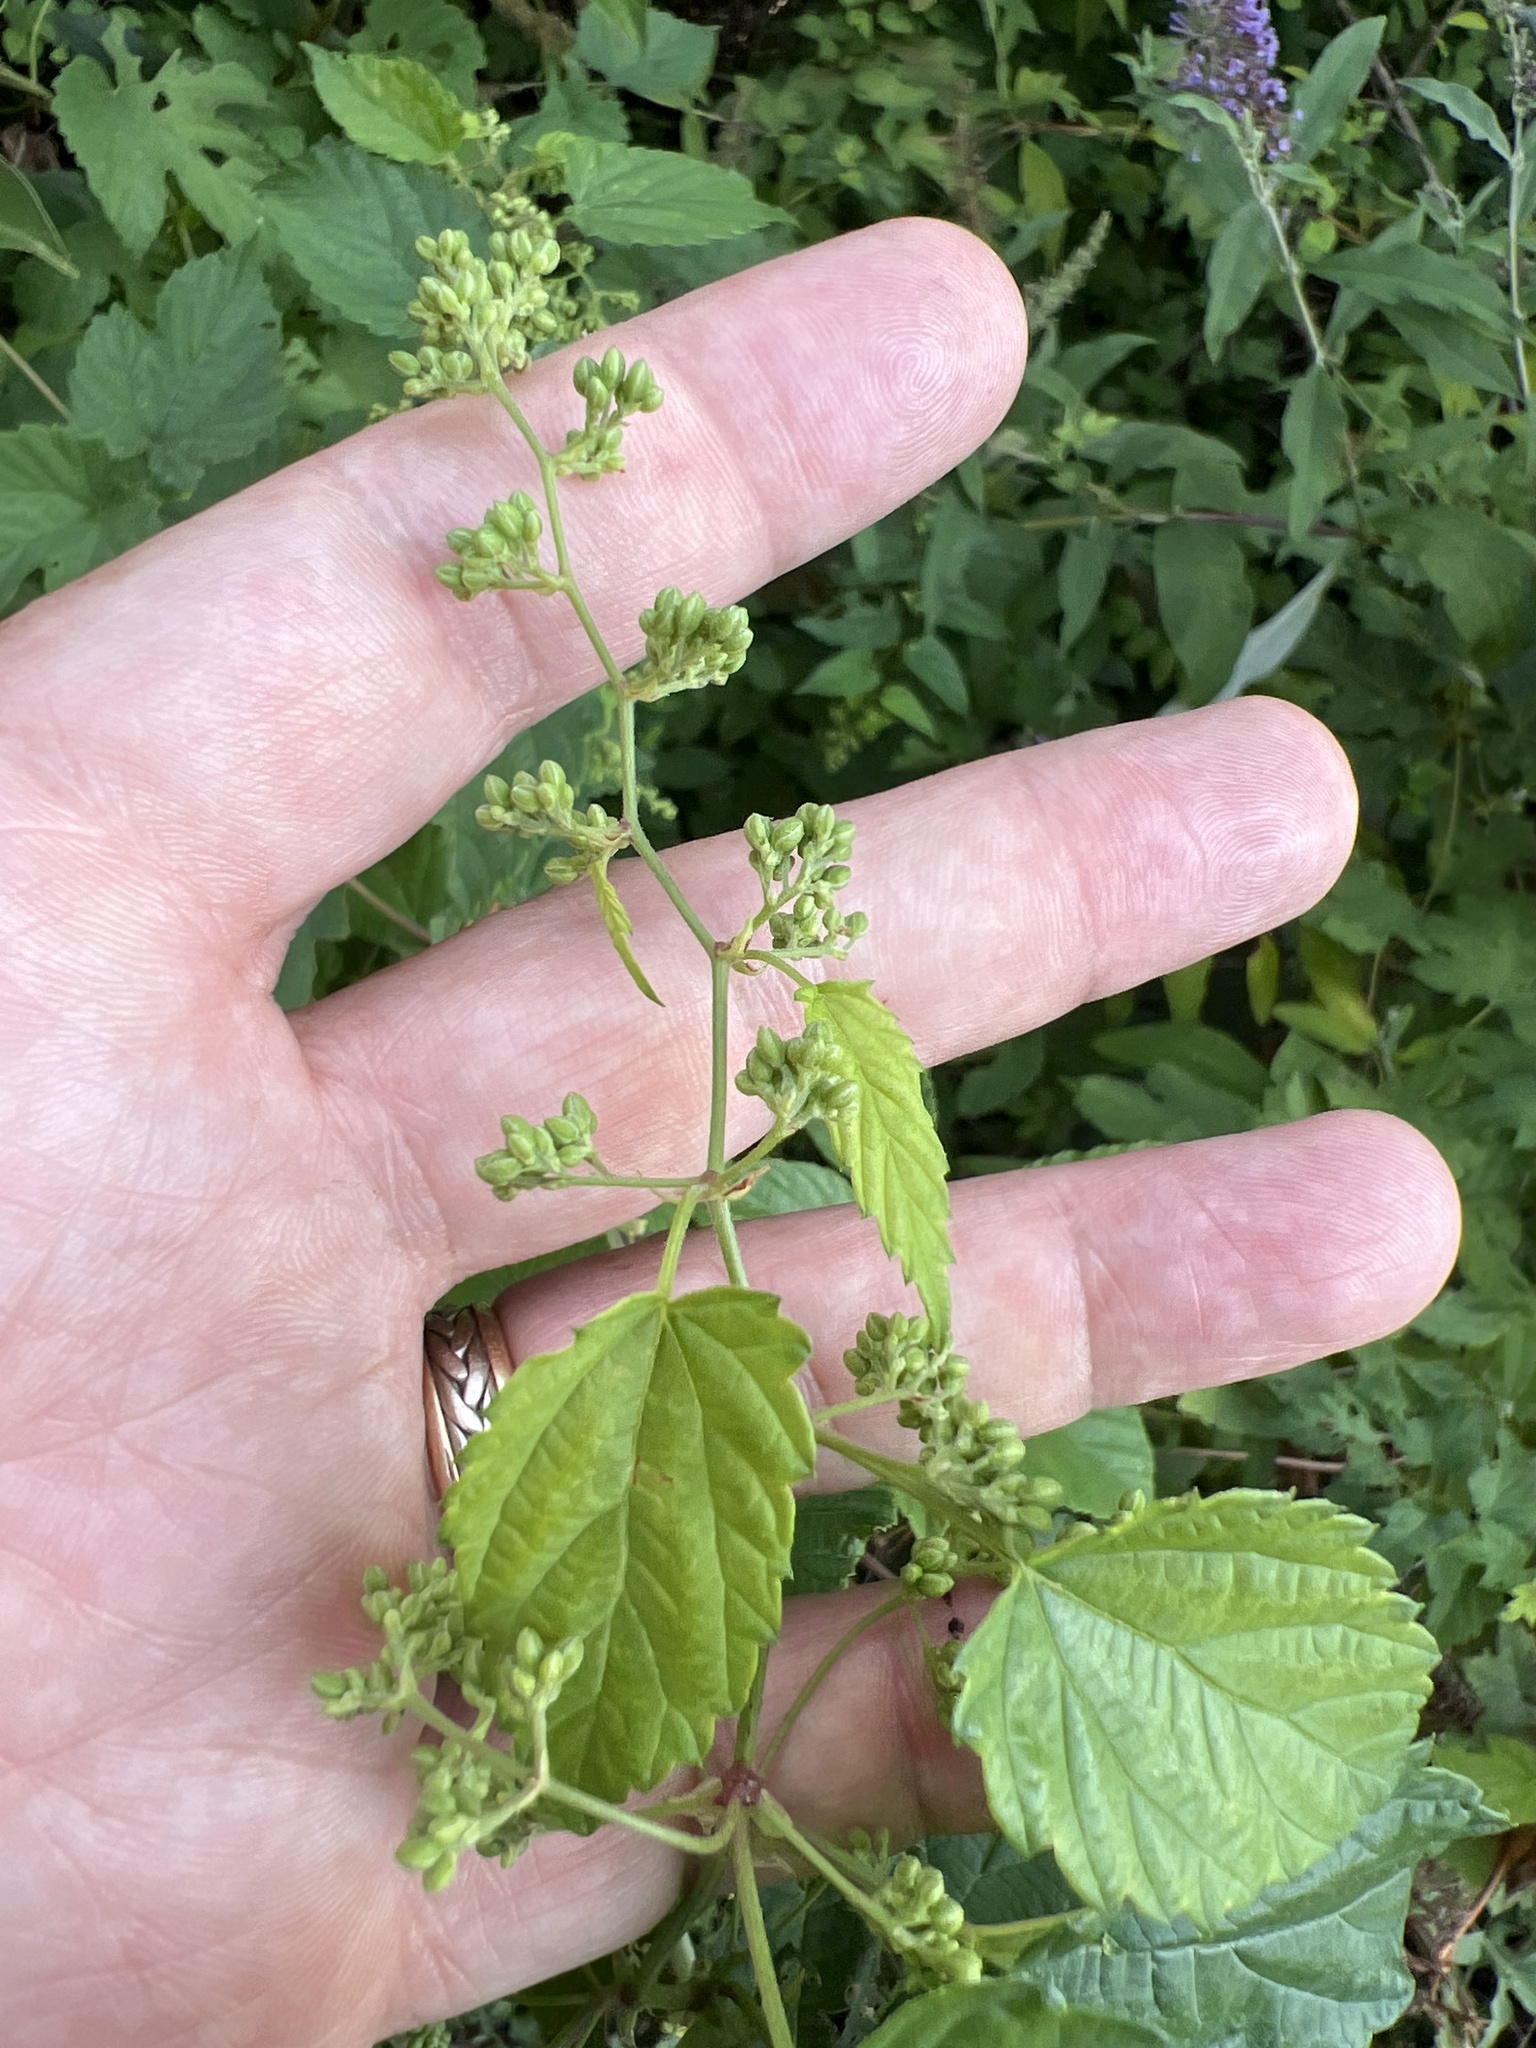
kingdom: Plantae
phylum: Tracheophyta
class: Magnoliopsida
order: Rosales
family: Cannabaceae
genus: Humulus
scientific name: Humulus lupulus
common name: Hop
